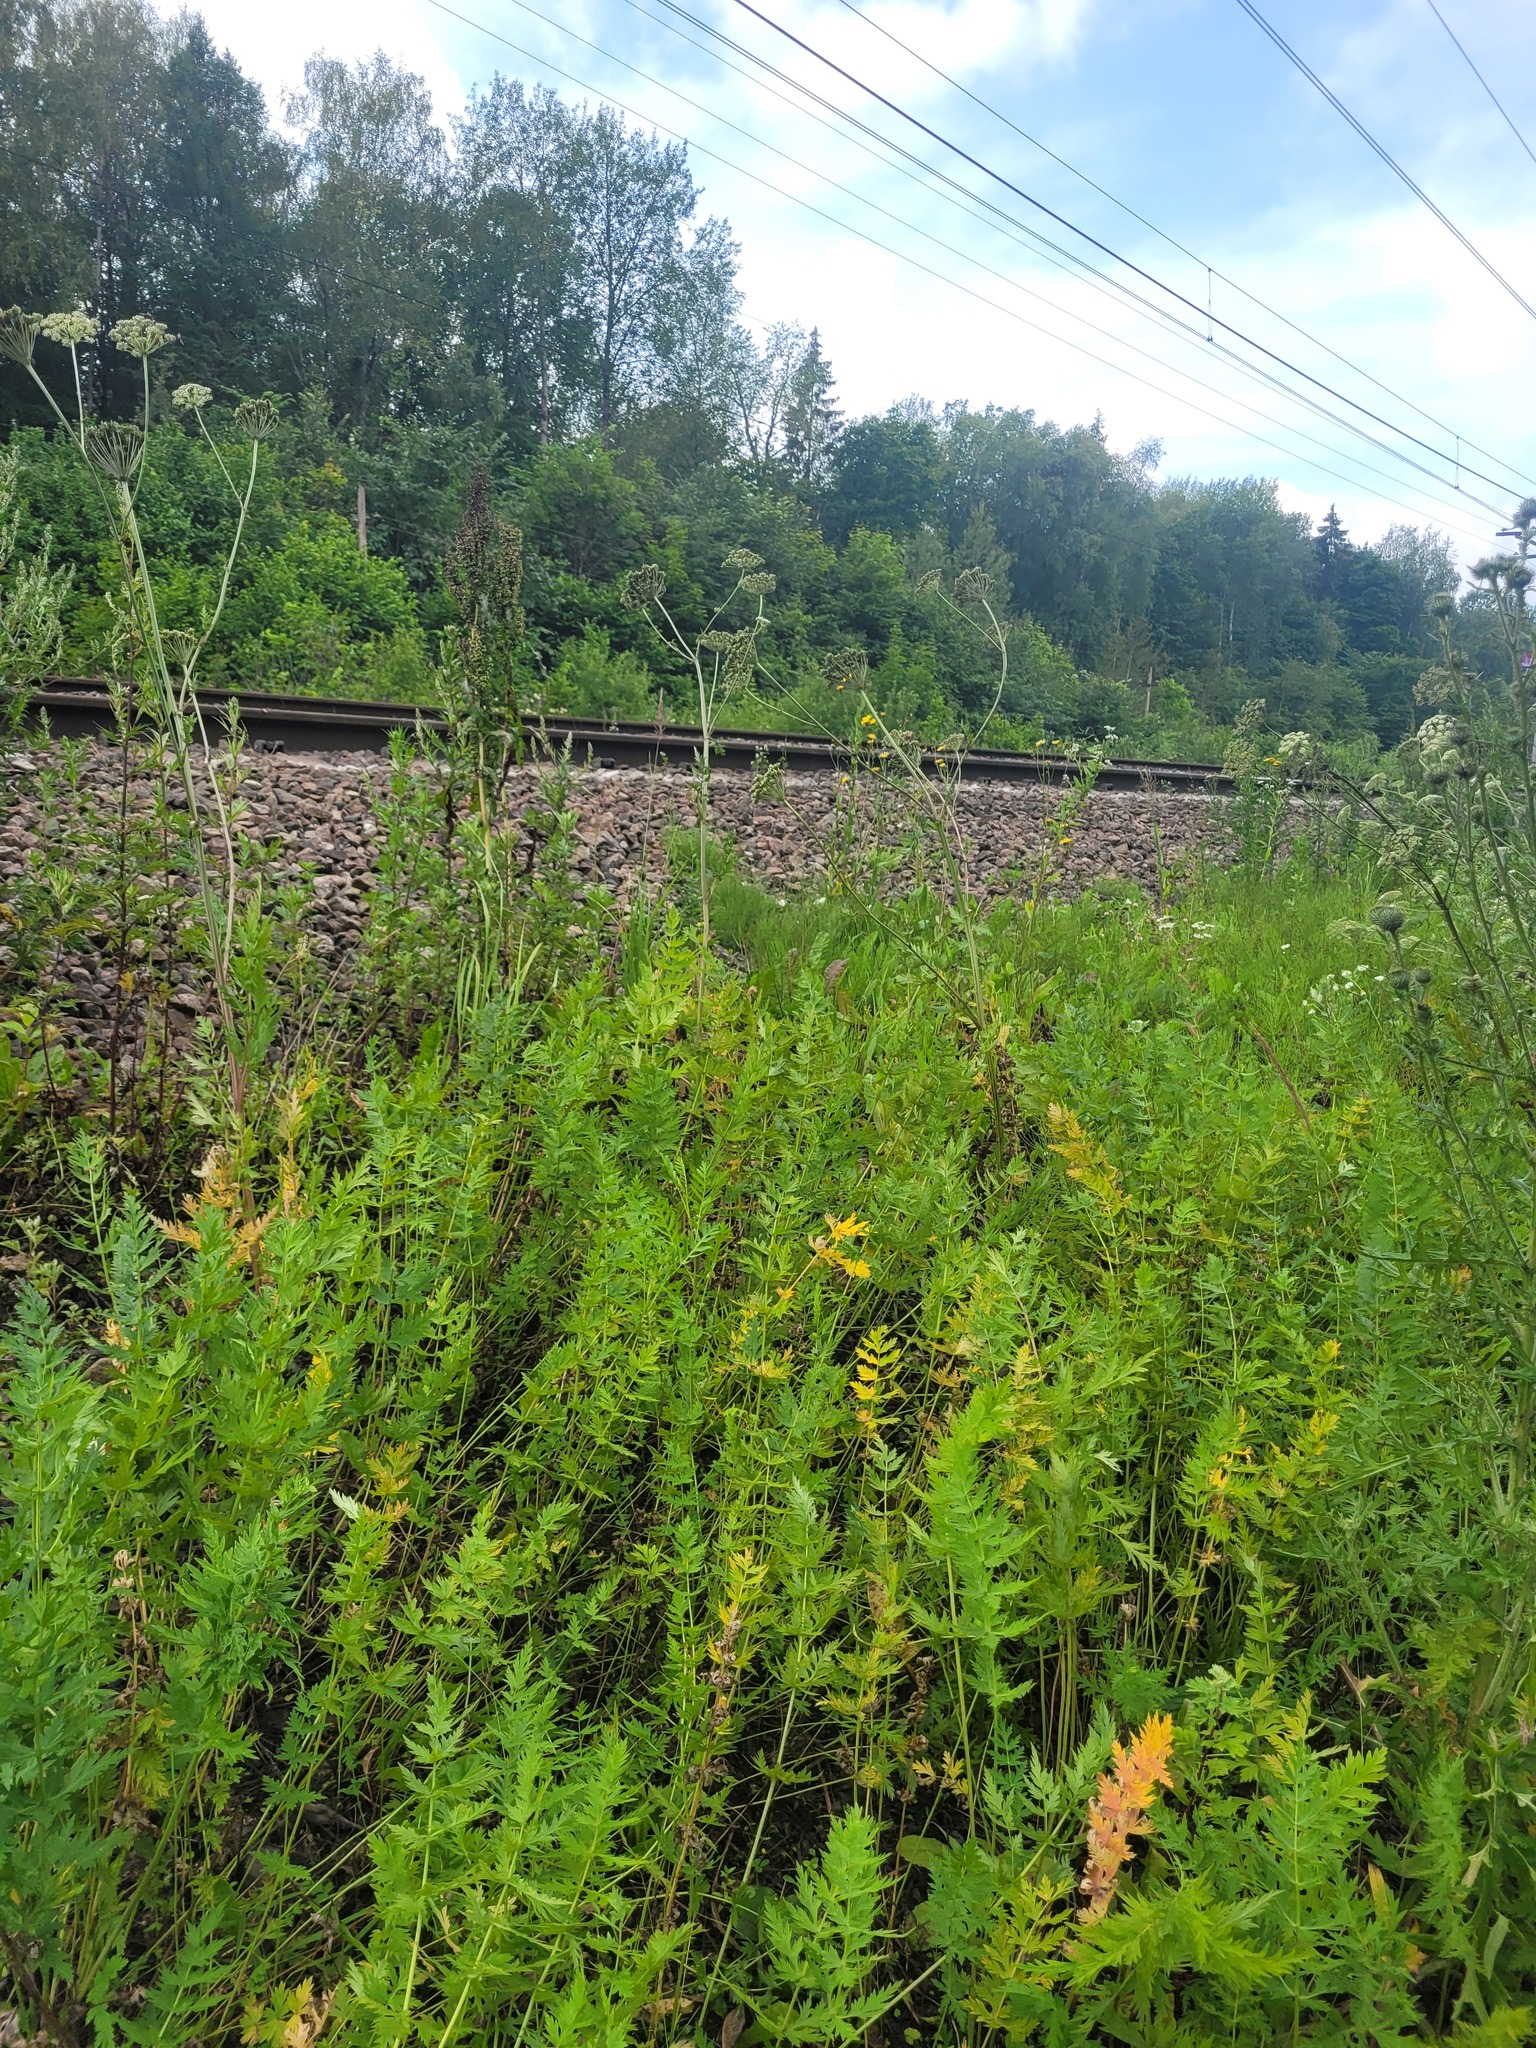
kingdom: Plantae
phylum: Tracheophyta
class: Magnoliopsida
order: Apiales
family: Apiaceae
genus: Seseli
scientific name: Seseli libanotis
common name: Mooncarrot
